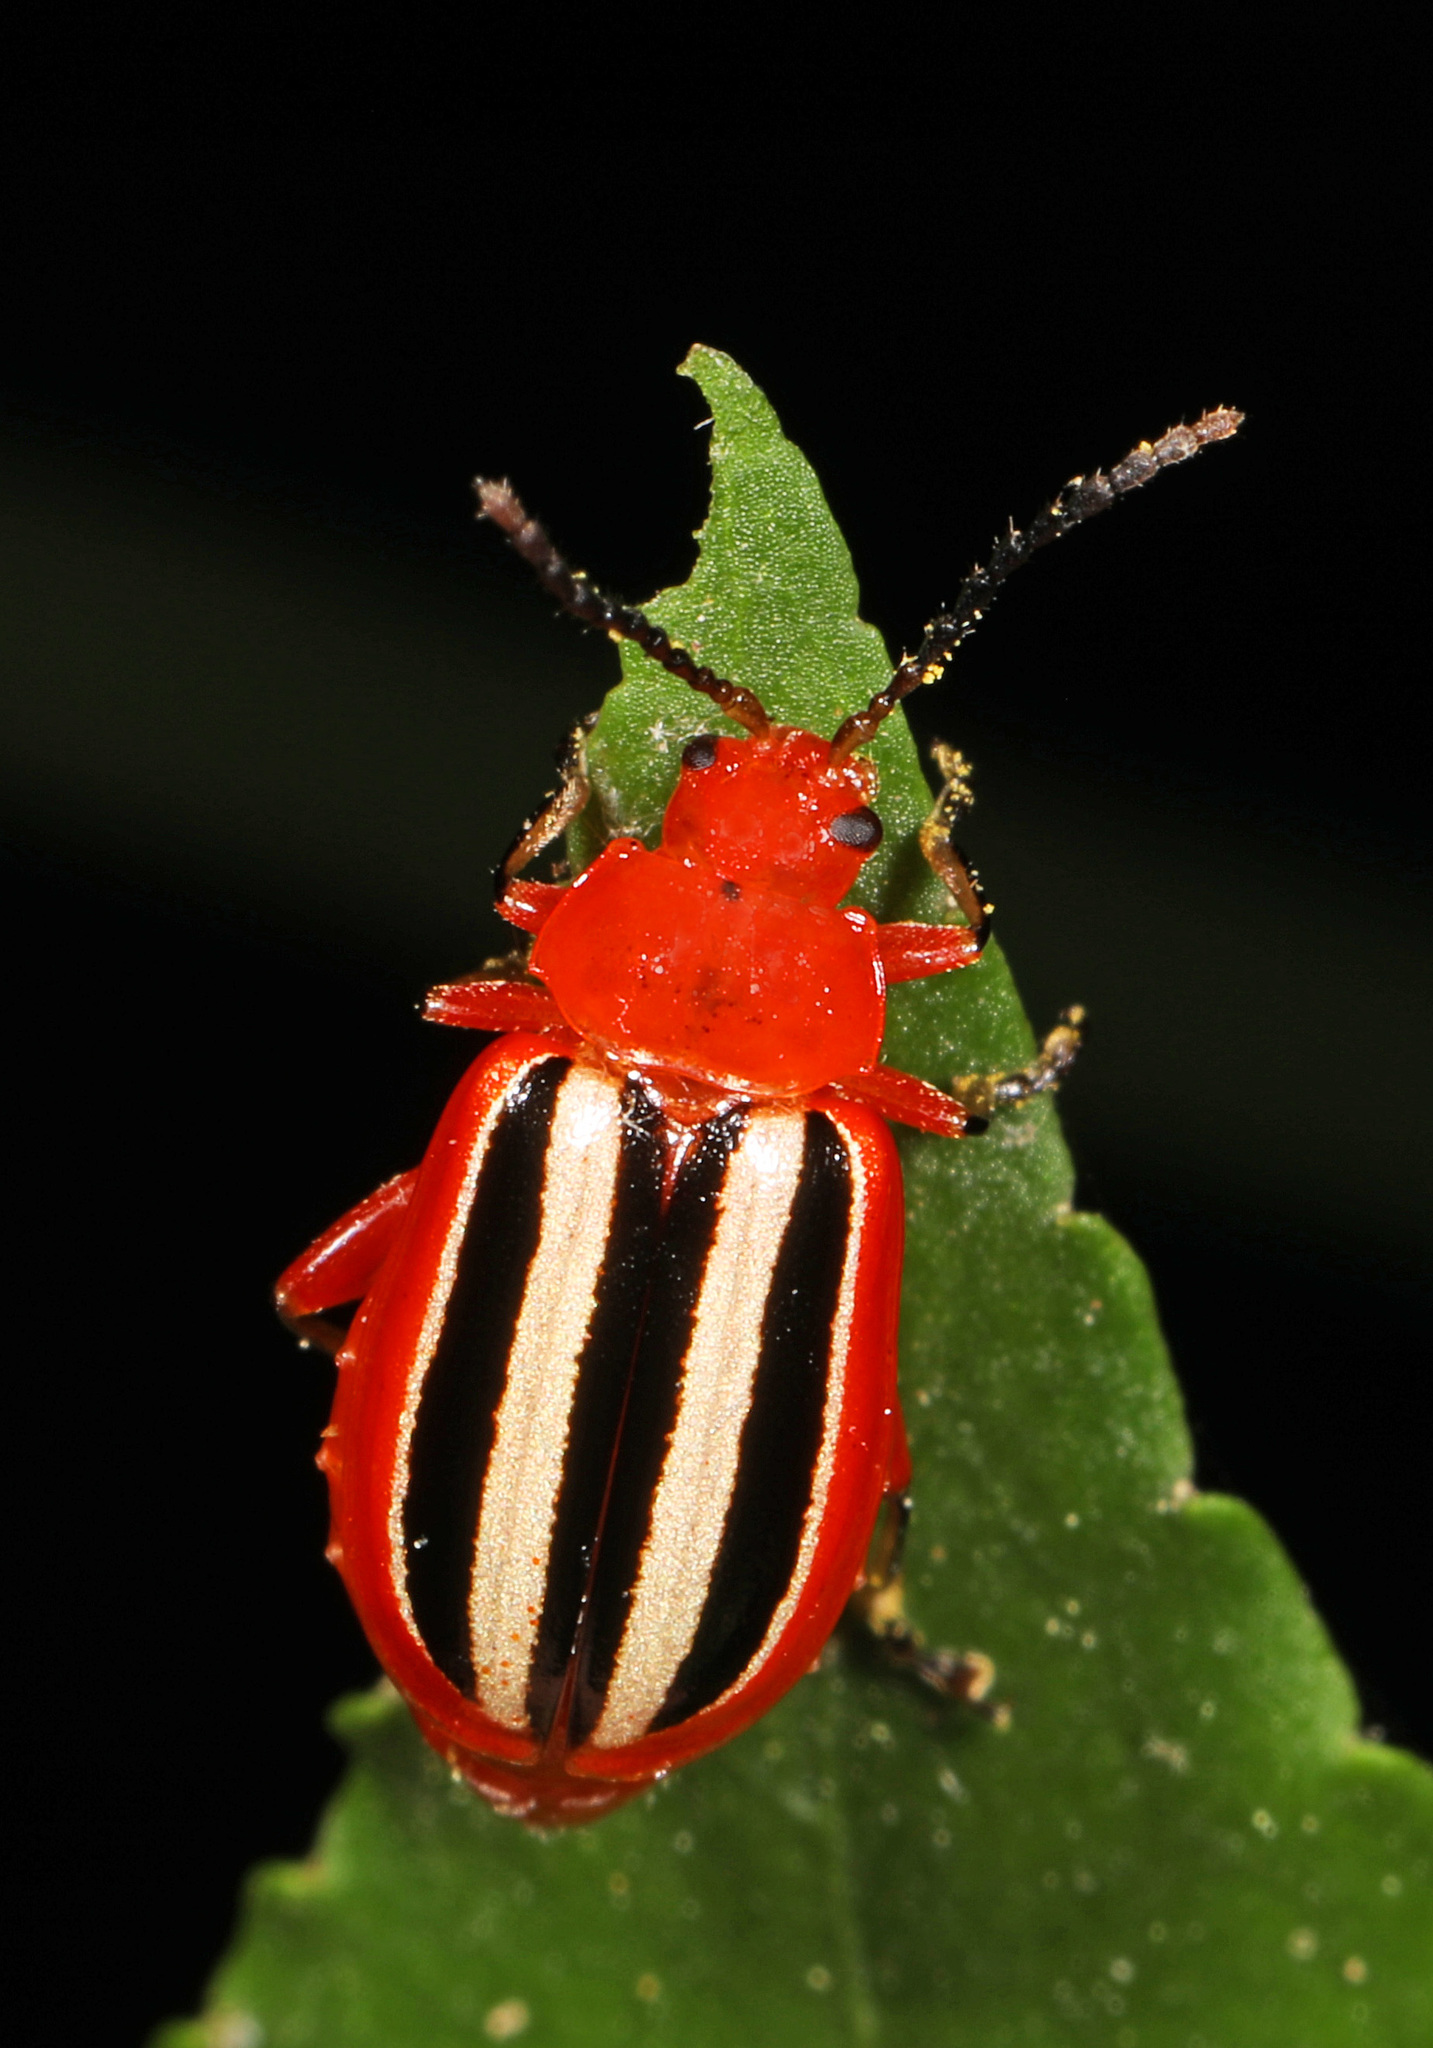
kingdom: Animalia
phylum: Arthropoda
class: Insecta
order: Coleoptera
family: Chrysomelidae
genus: Disonycha
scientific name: Disonycha discoidea
